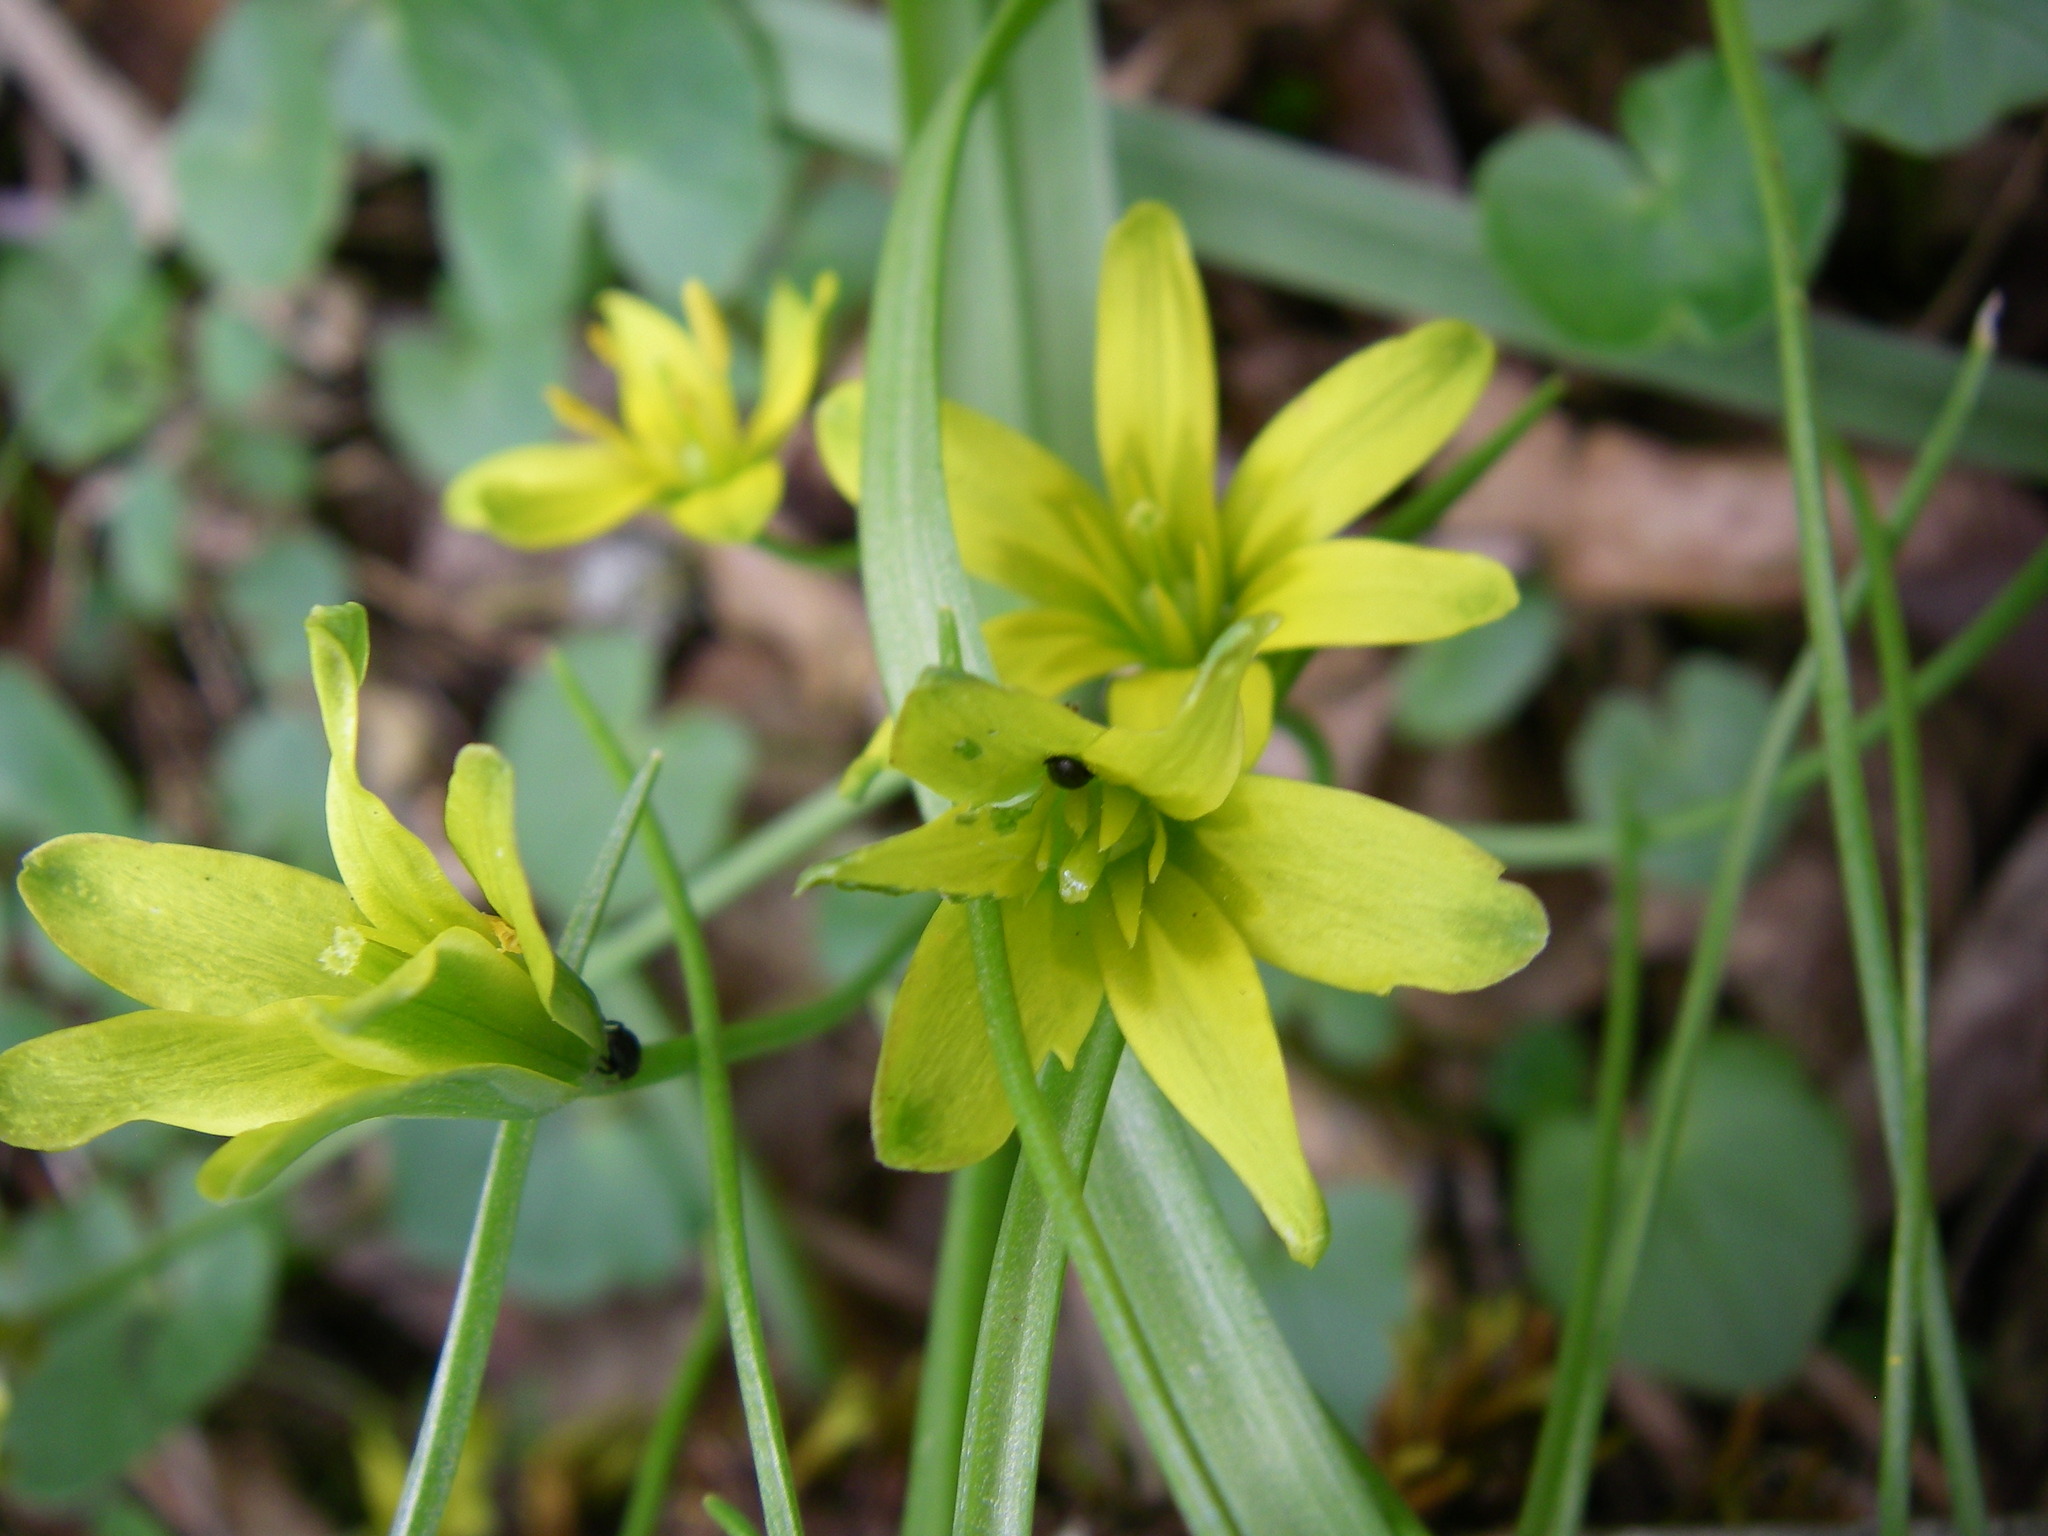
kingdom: Plantae
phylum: Tracheophyta
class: Liliopsida
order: Liliales
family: Liliaceae
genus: Gagea
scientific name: Gagea lutea
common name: Yellow star-of-bethlehem
